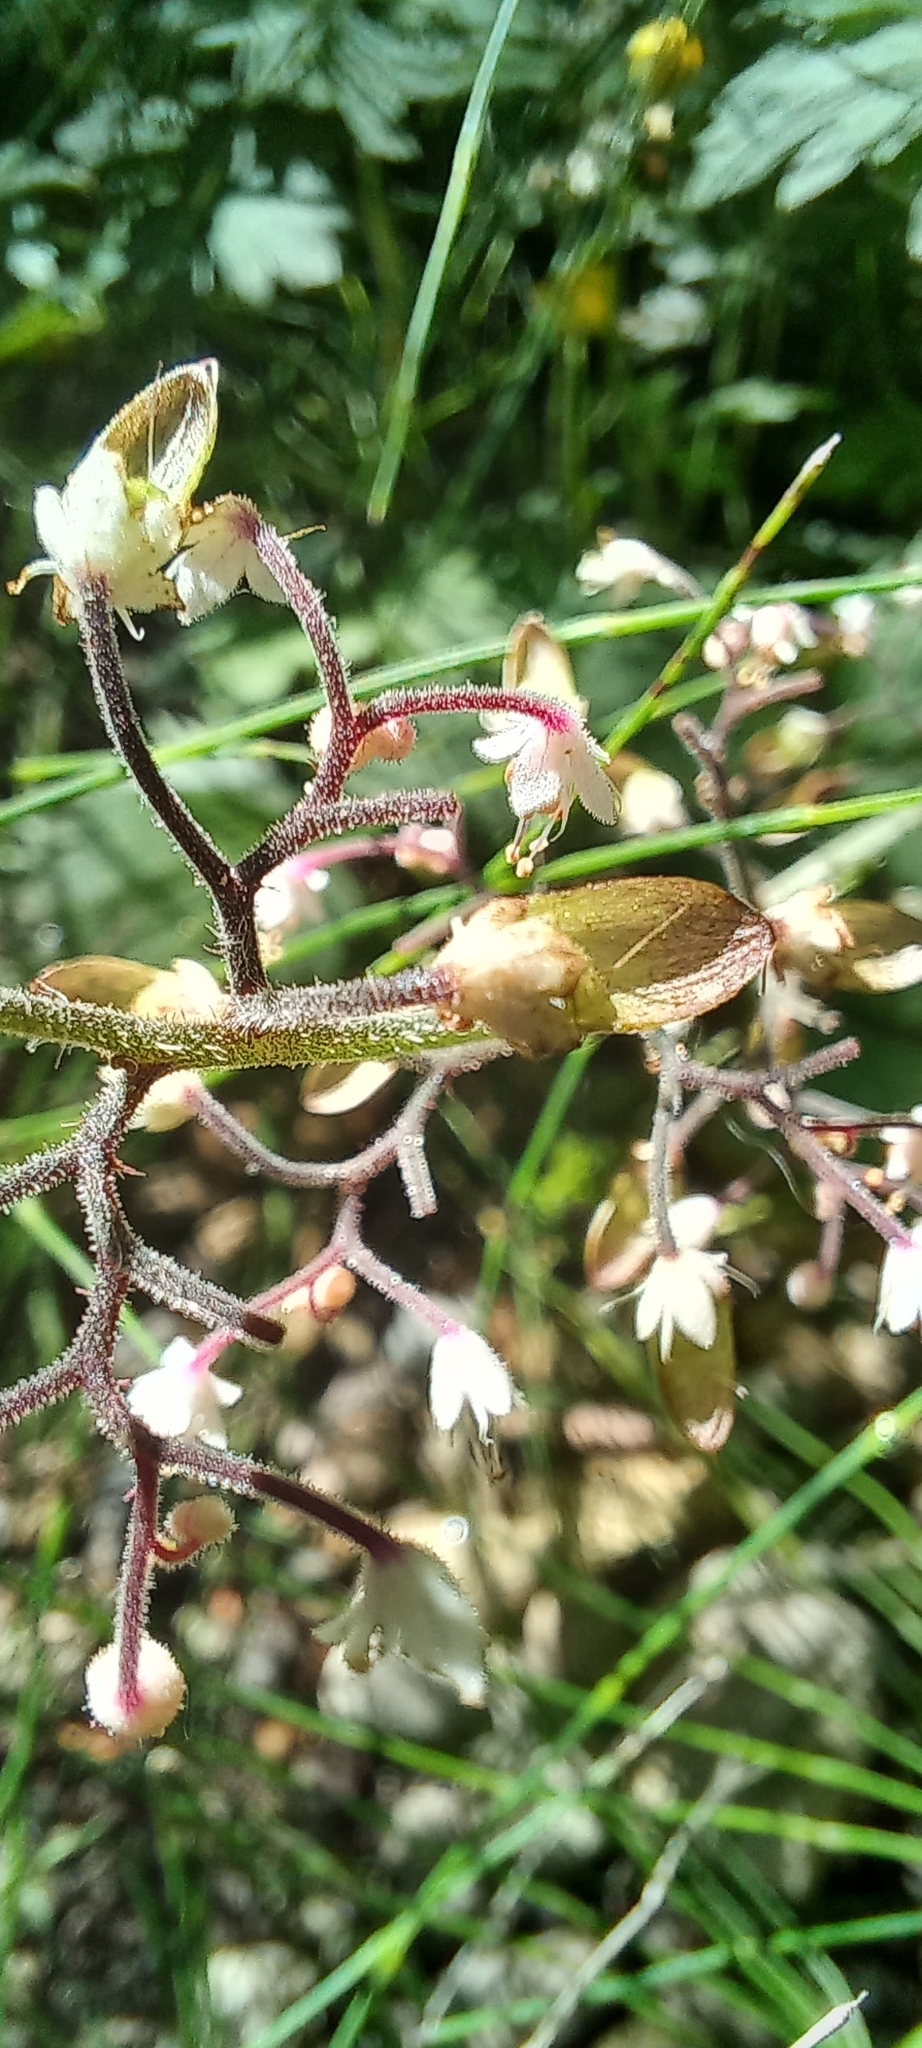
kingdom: Plantae
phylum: Tracheophyta
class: Magnoliopsida
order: Saxifragales
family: Saxifragaceae
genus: Tiarella
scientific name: Tiarella trifoliata
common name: Sugar-scoop
